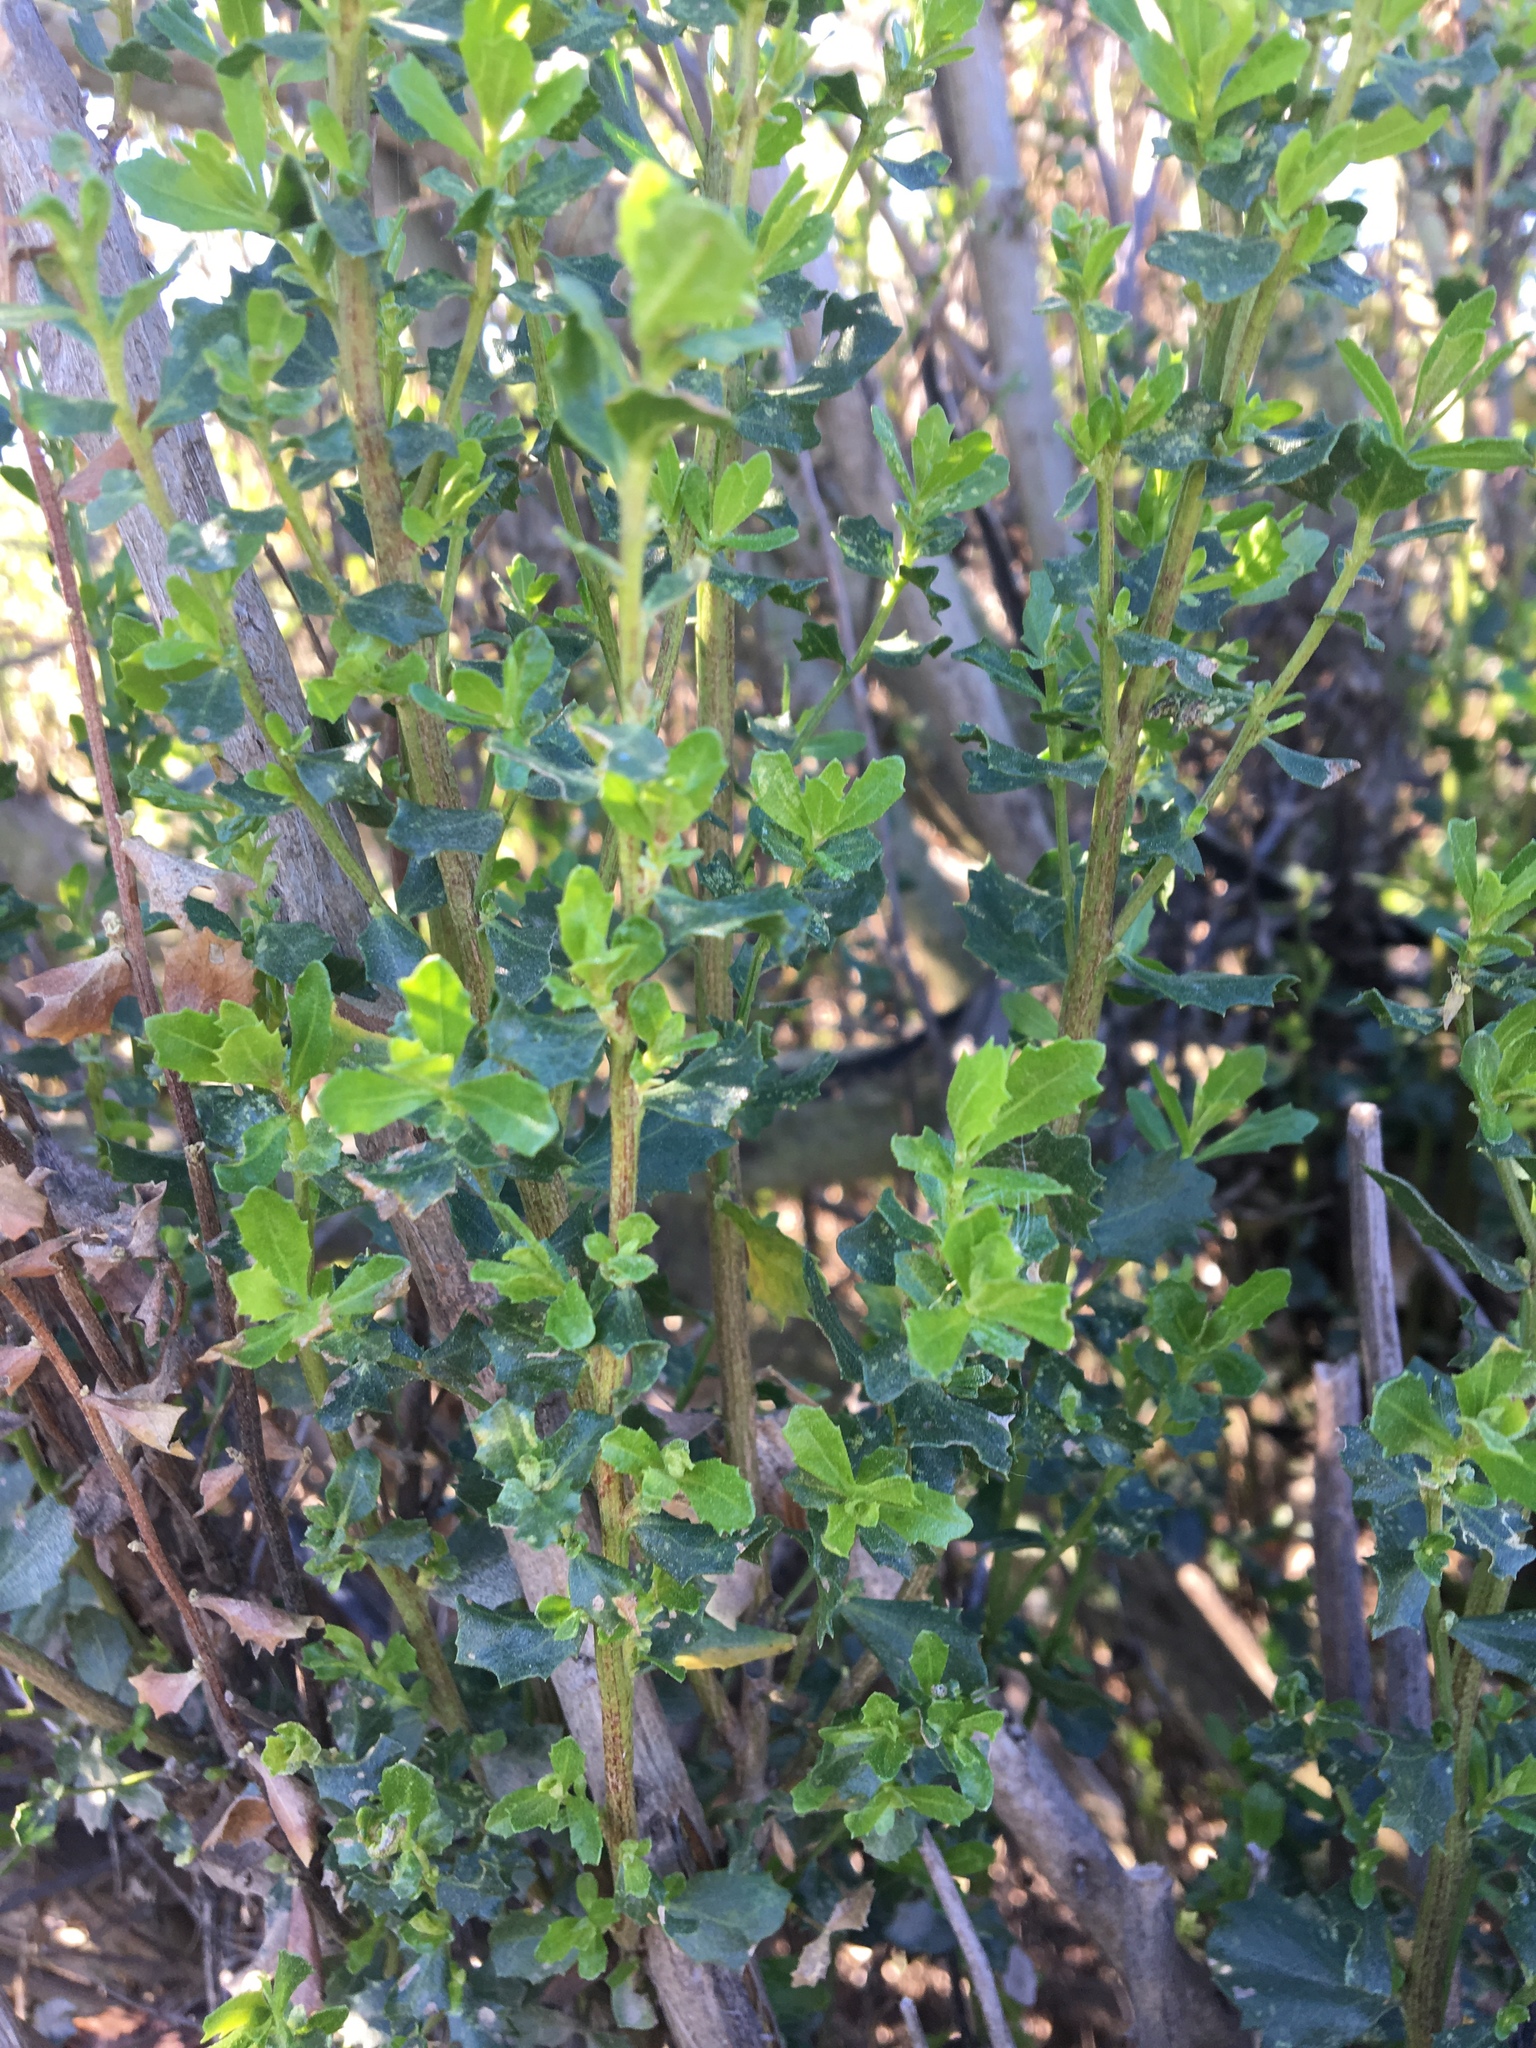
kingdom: Plantae
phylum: Tracheophyta
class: Magnoliopsida
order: Asterales
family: Asteraceae
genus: Baccharis
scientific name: Baccharis pilularis
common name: Coyotebrush
